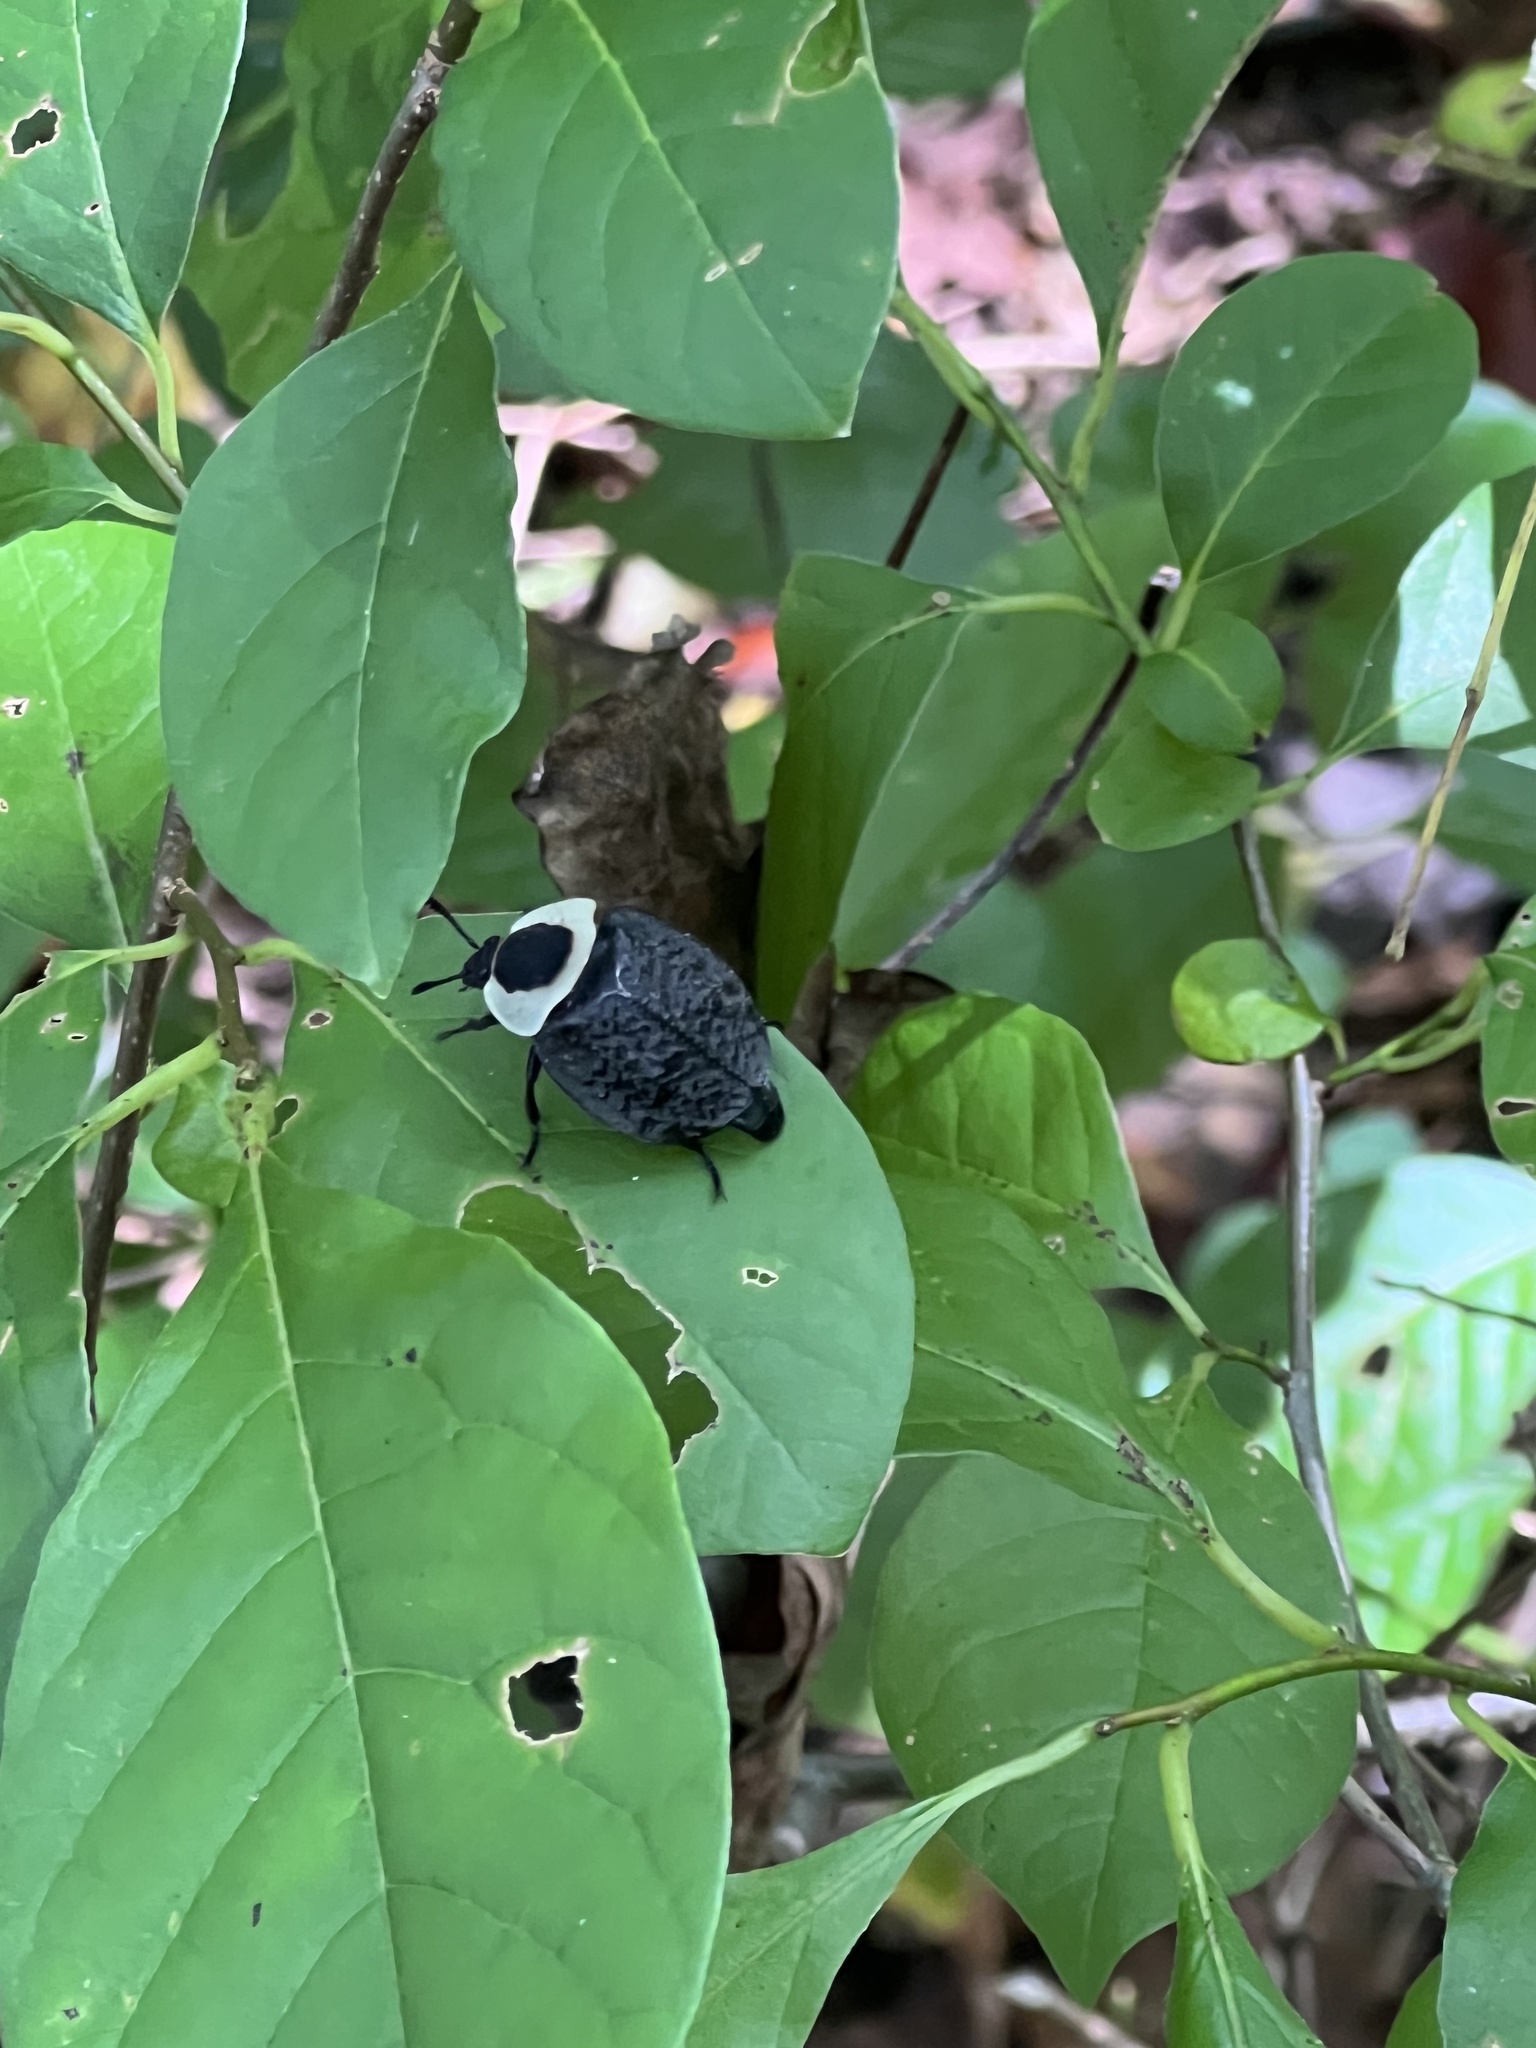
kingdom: Animalia
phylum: Arthropoda
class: Insecta
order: Coleoptera
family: Staphylinidae
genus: Necrophila
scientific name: Necrophila americana
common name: American carrion beetle
